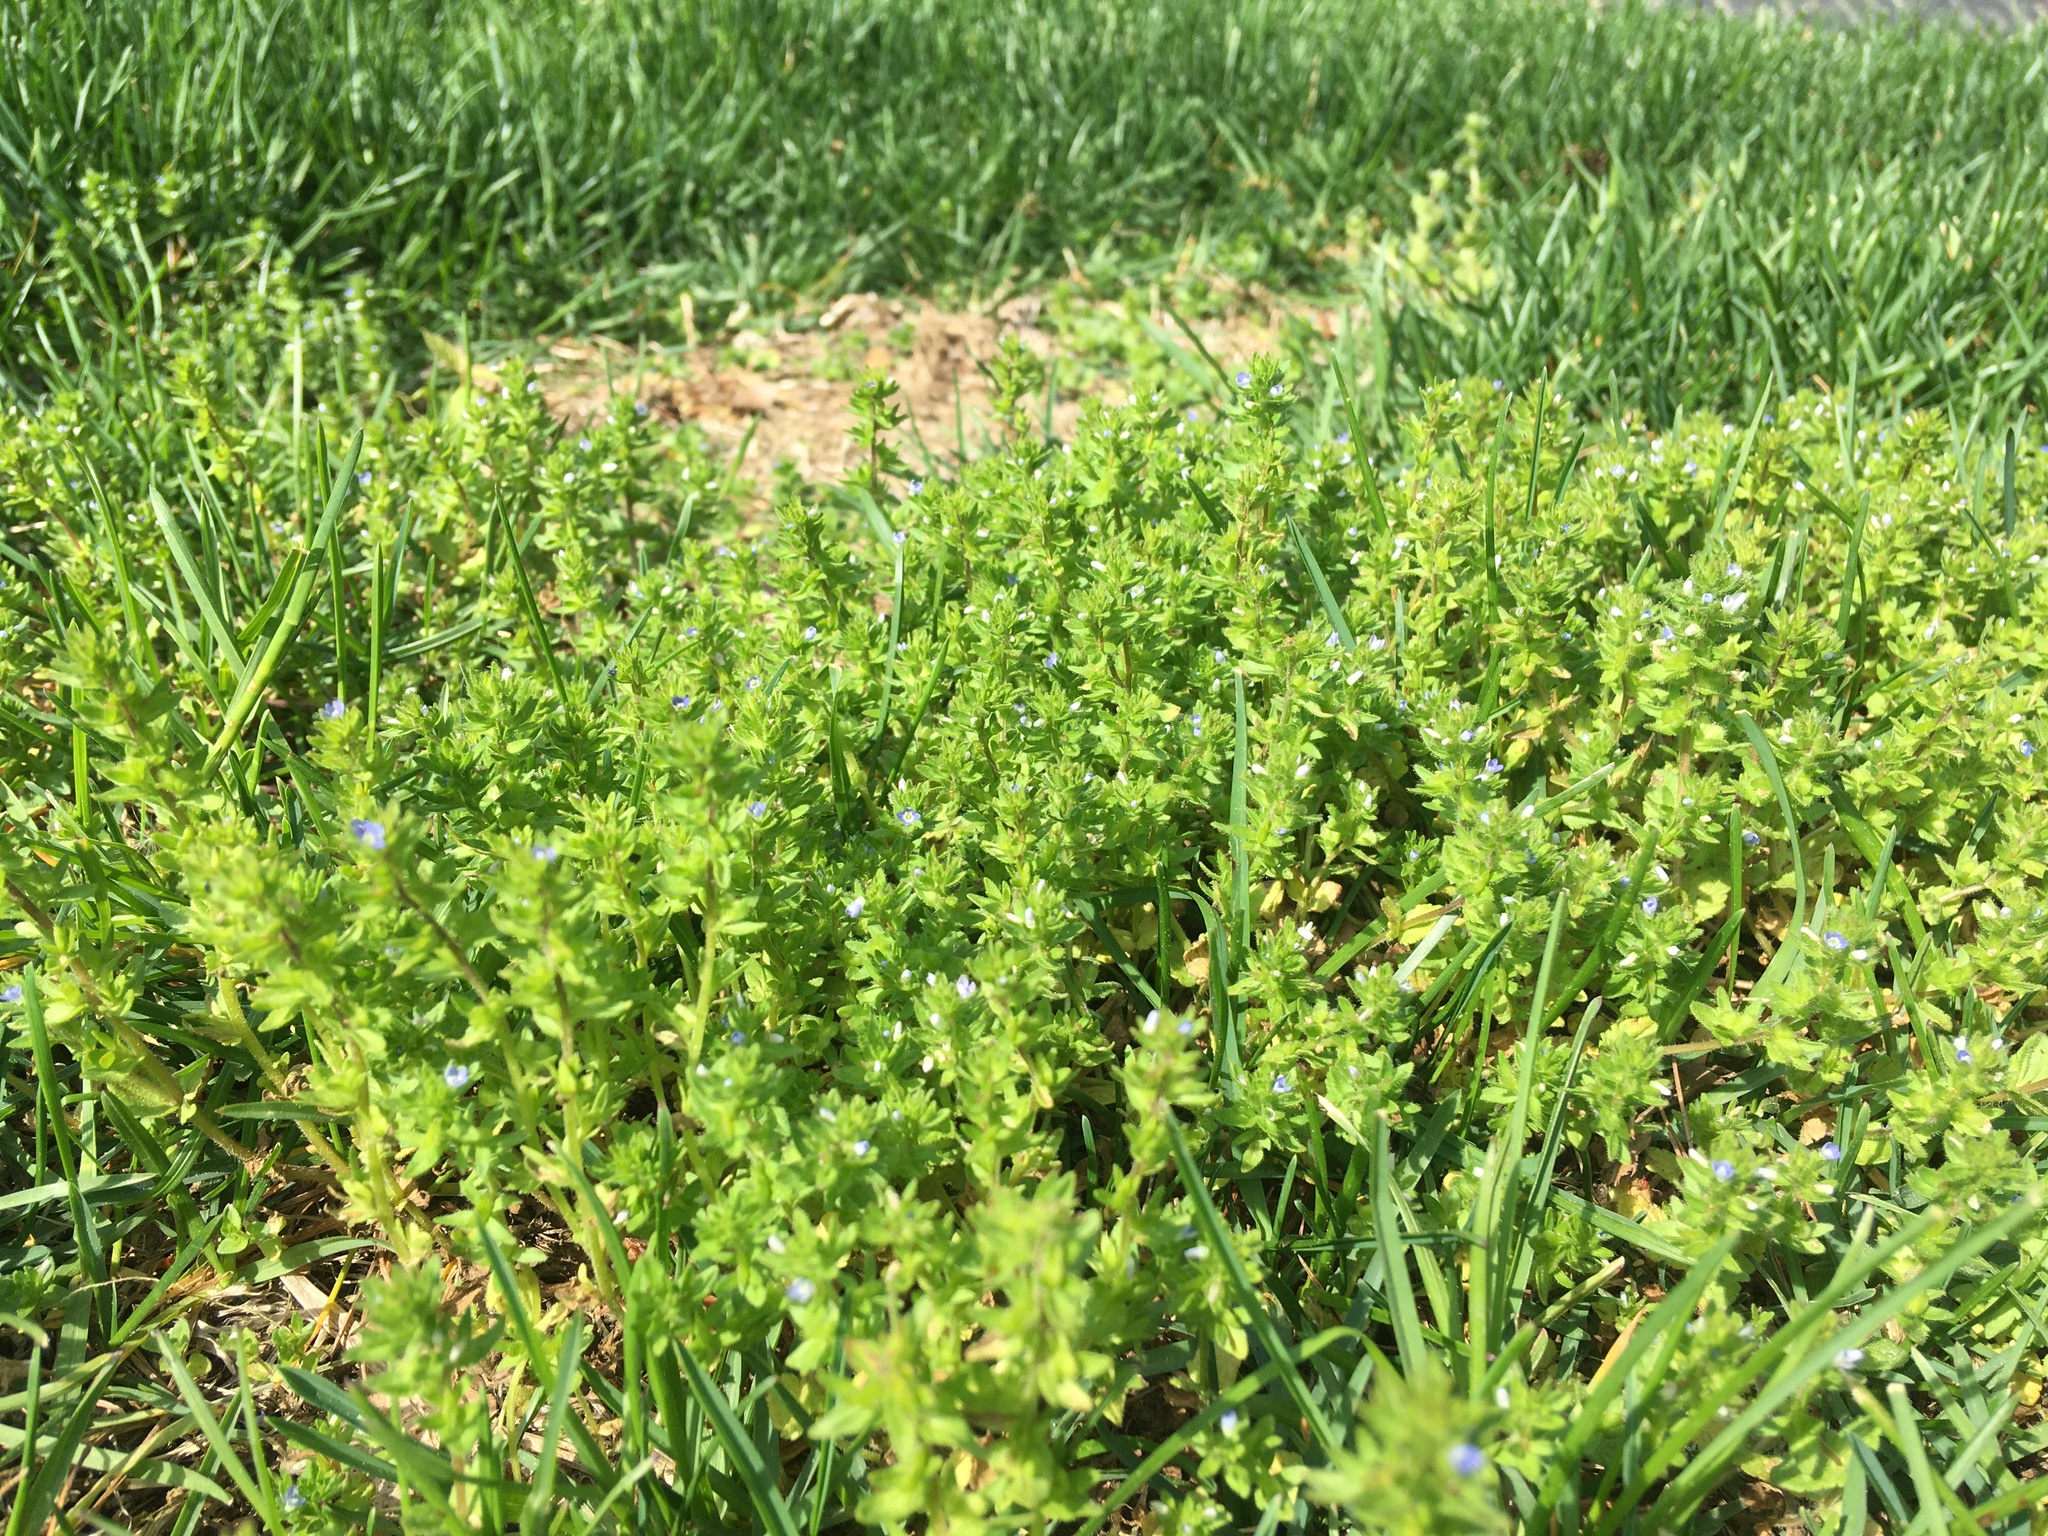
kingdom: Plantae
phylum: Tracheophyta
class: Magnoliopsida
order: Lamiales
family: Plantaginaceae
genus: Veronica
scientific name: Veronica arvensis
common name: Corn speedwell
